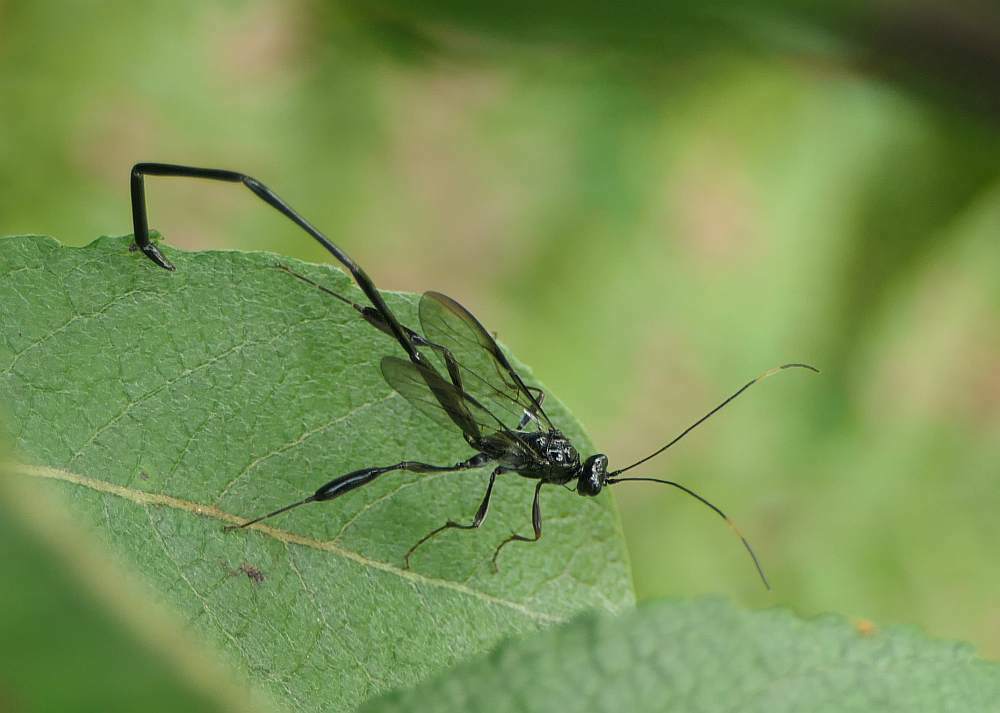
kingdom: Animalia
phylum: Arthropoda
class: Insecta
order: Hymenoptera
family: Pelecinidae
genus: Pelecinus
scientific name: Pelecinus polyturator
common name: American pelecinid wasp
